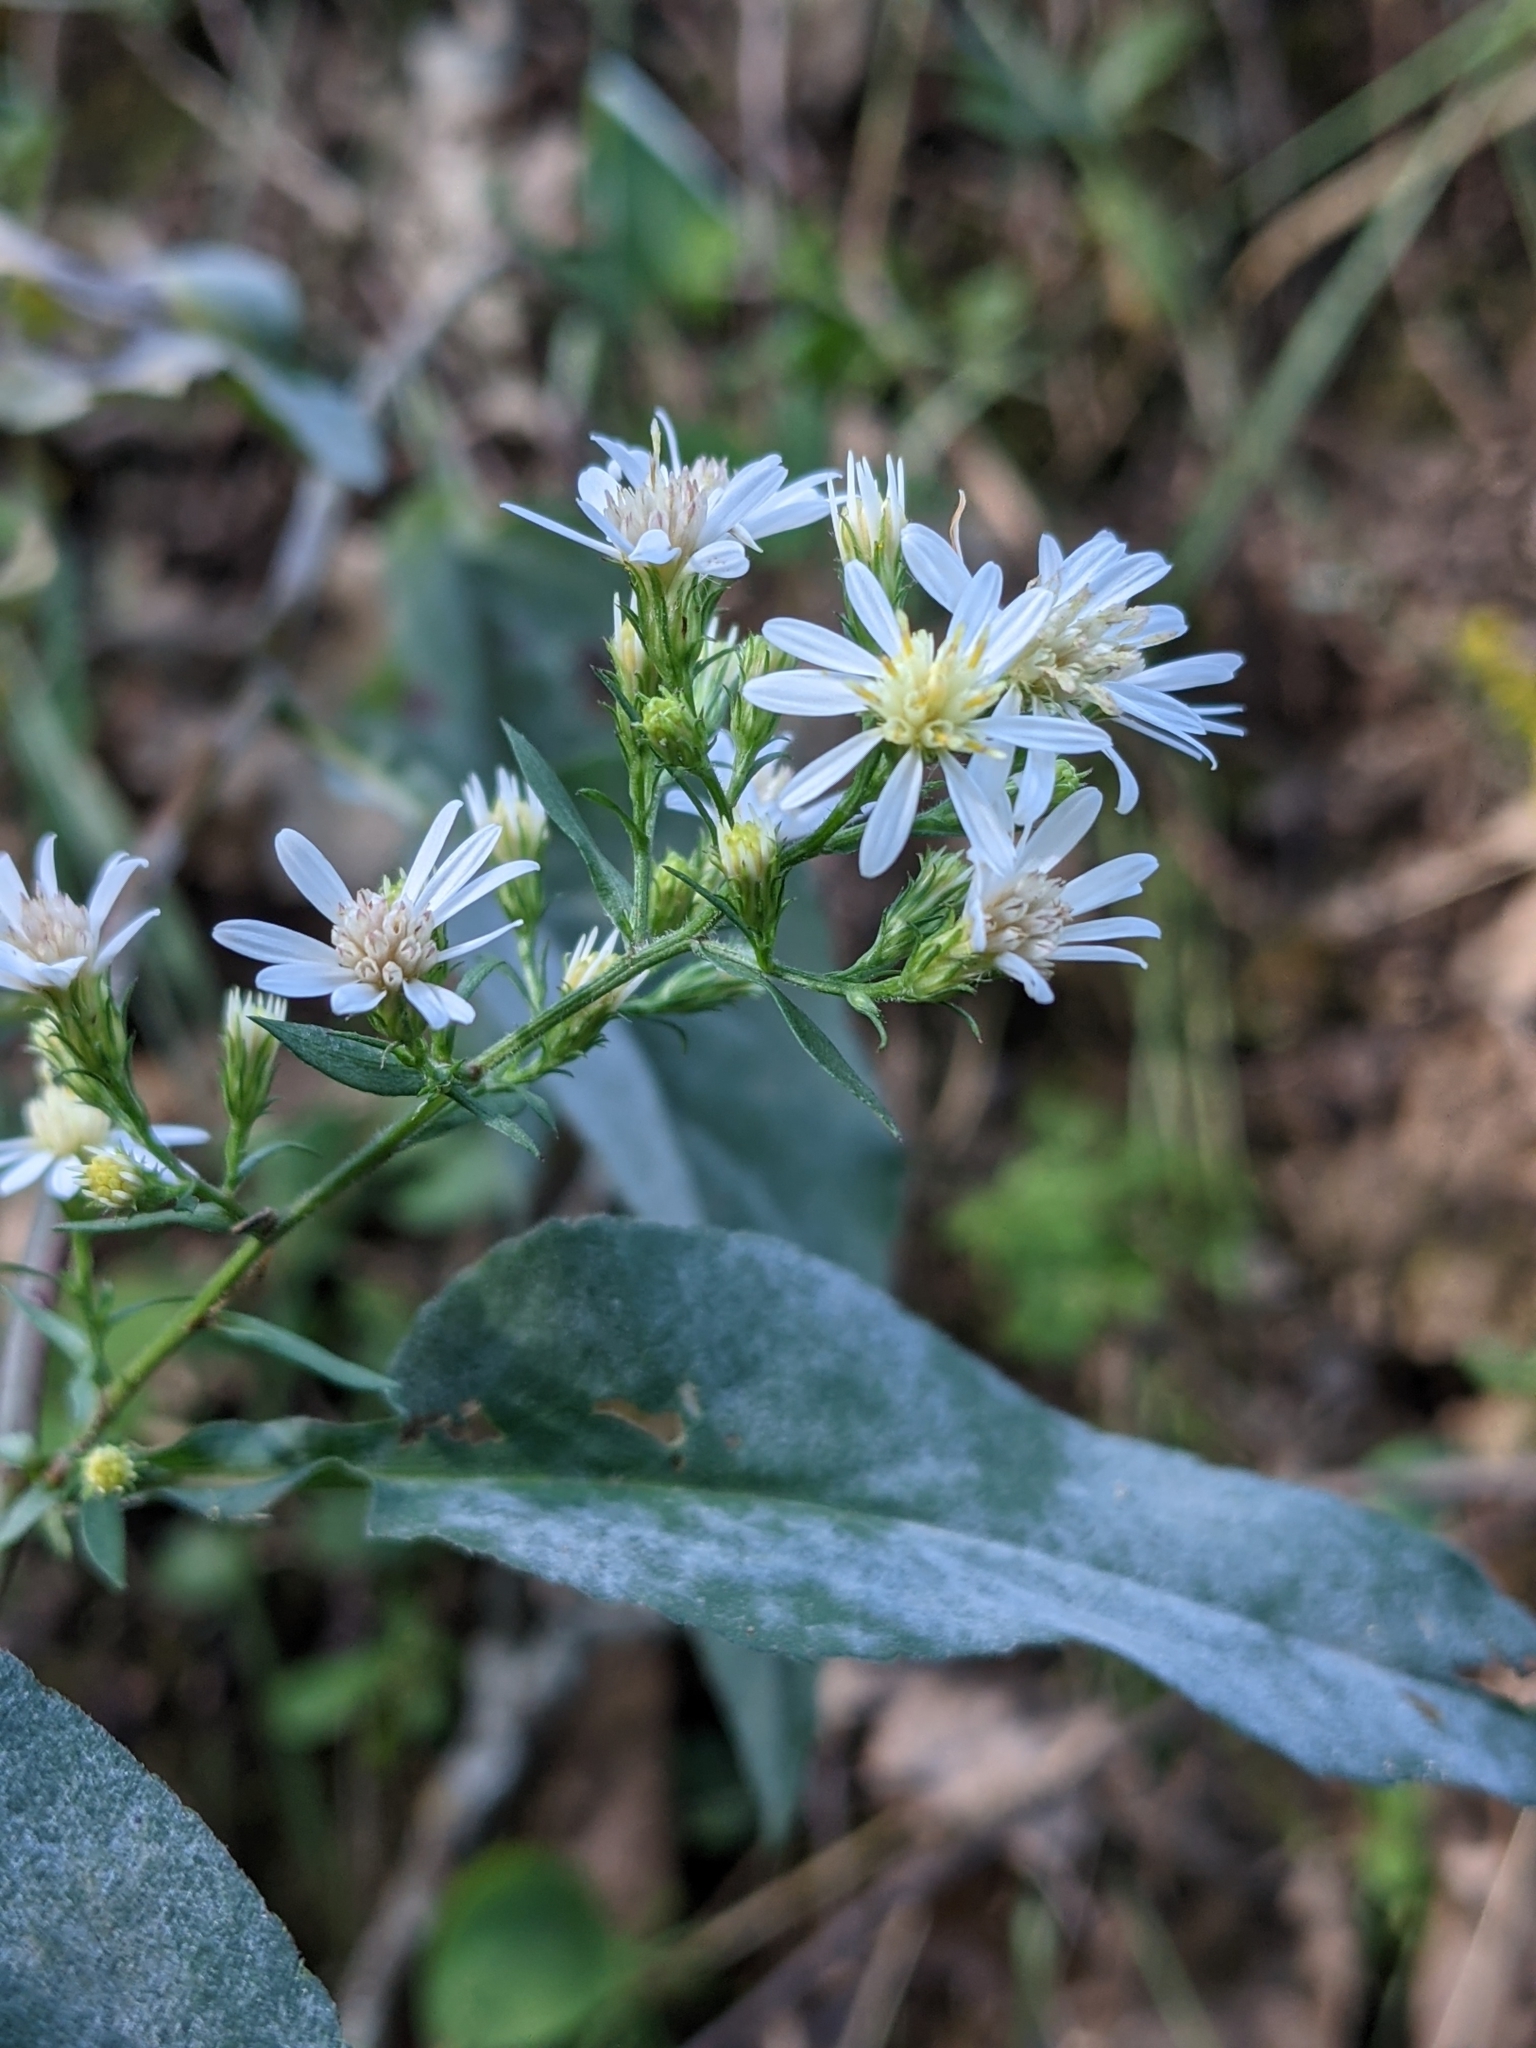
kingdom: Plantae
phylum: Tracheophyta
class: Magnoliopsida
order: Asterales
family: Asteraceae
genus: Symphyotrichum
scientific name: Symphyotrichum urophyllum
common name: Arrow-leaved aster
